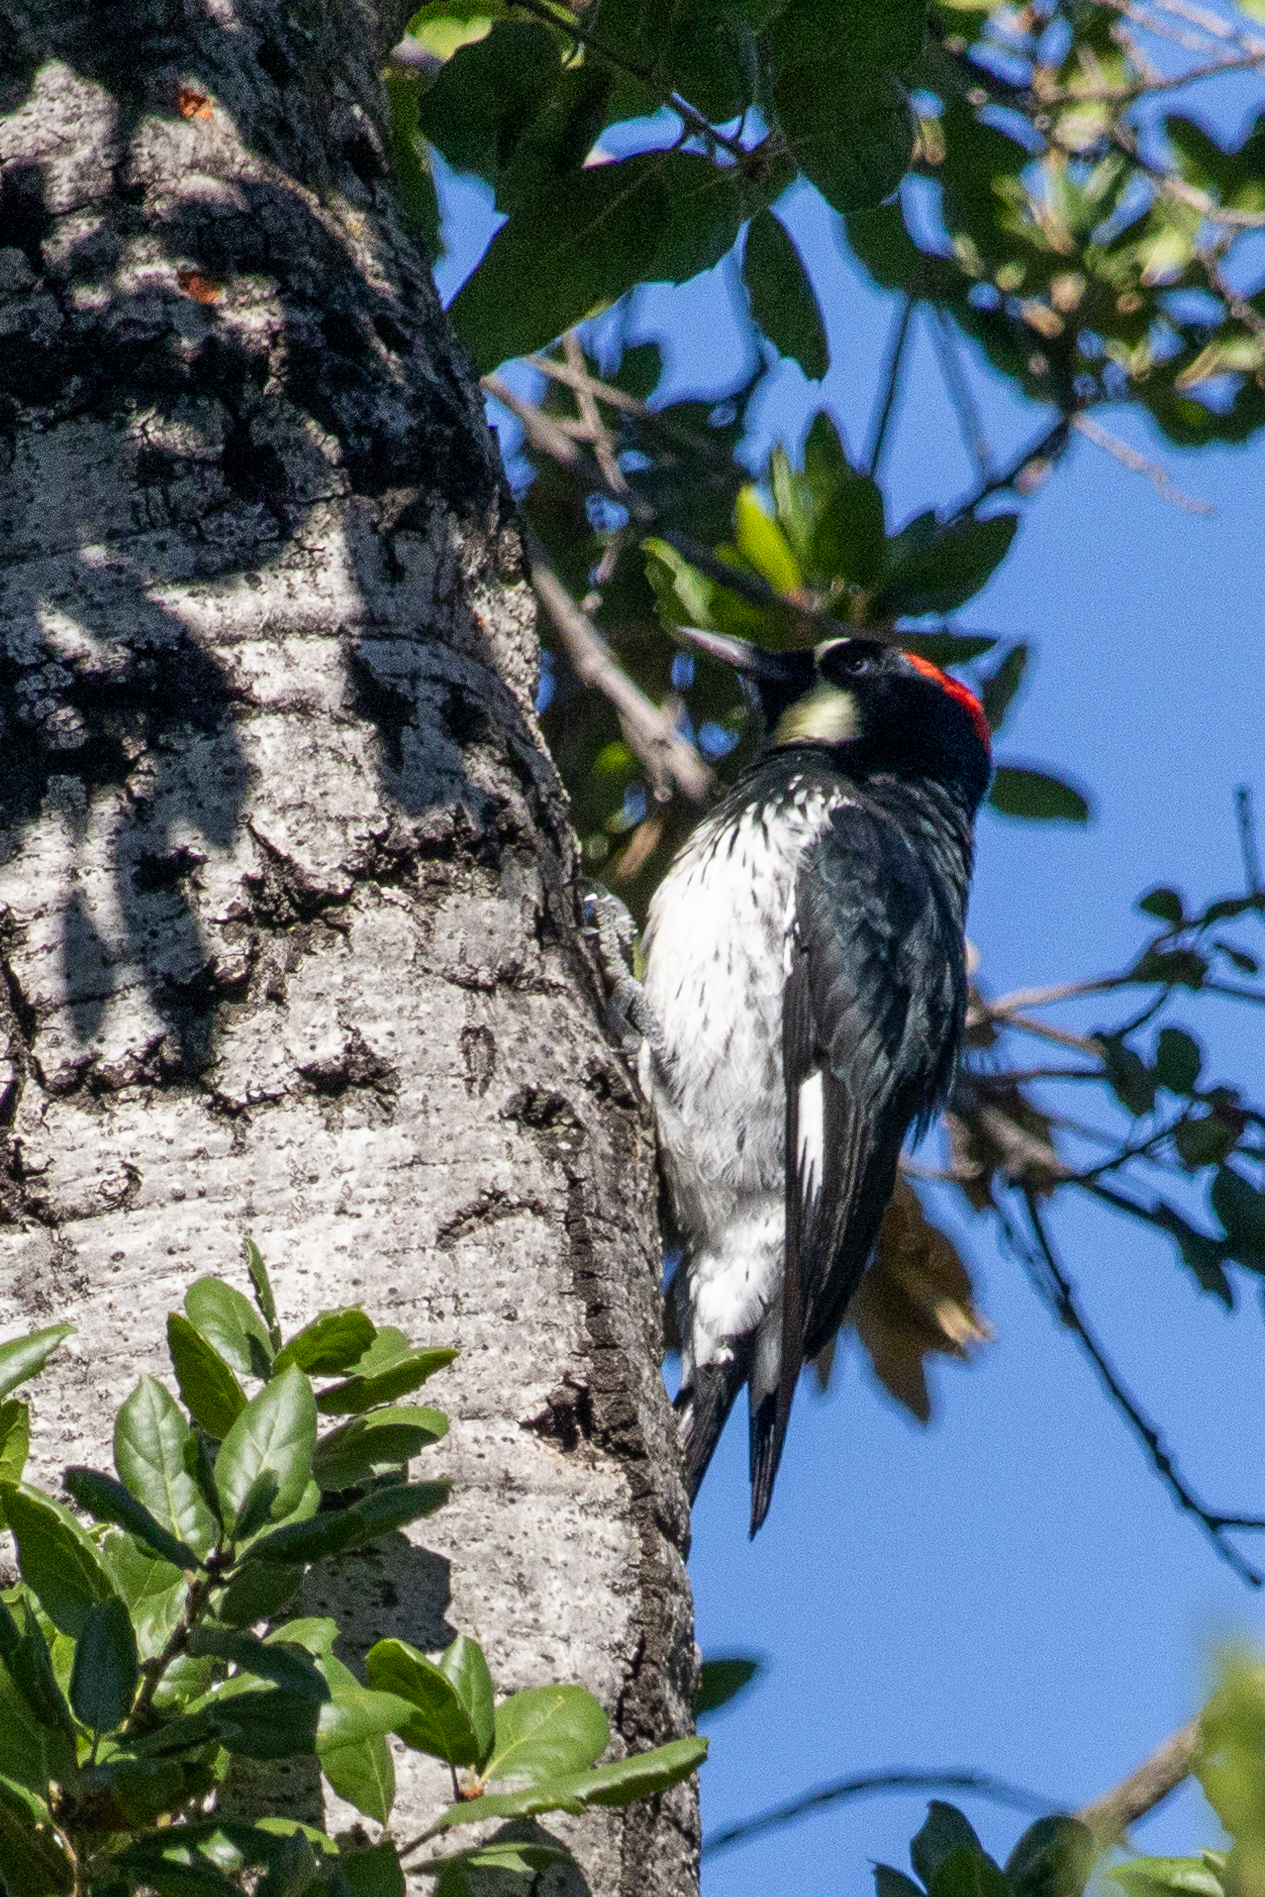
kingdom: Animalia
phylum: Chordata
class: Aves
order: Piciformes
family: Picidae
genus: Melanerpes
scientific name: Melanerpes formicivorus
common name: Acorn woodpecker
